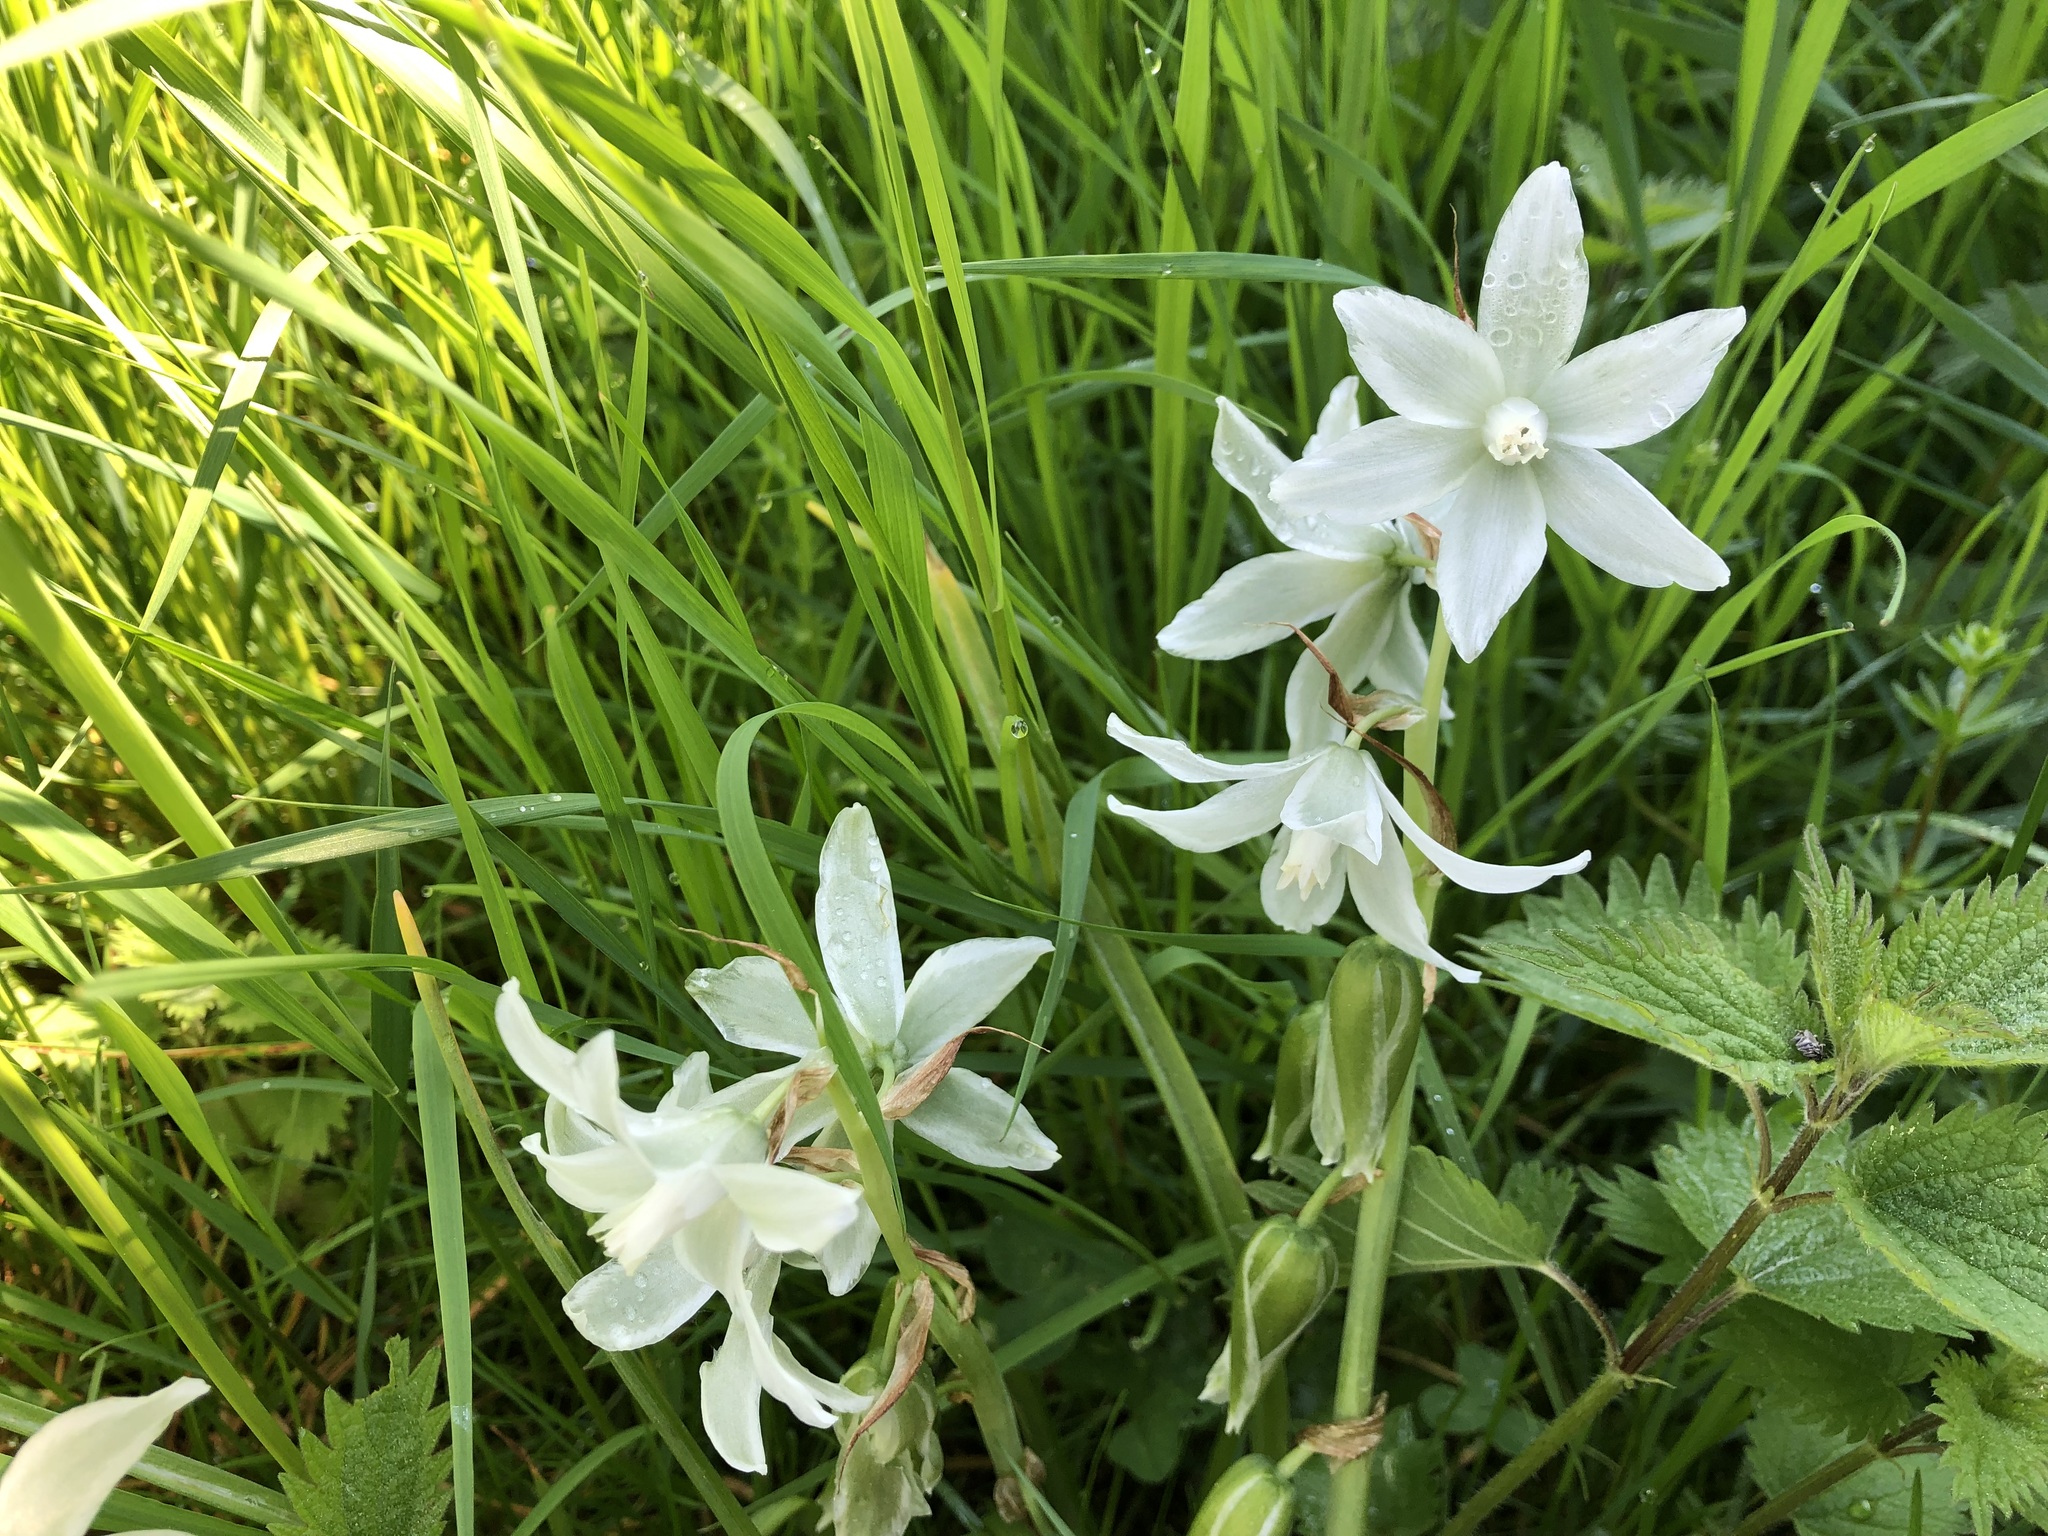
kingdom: Plantae
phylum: Tracheophyta
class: Liliopsida
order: Asparagales
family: Asparagaceae
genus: Ornithogalum
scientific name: Ornithogalum nutans
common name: Drooping star-of-bethlehem
